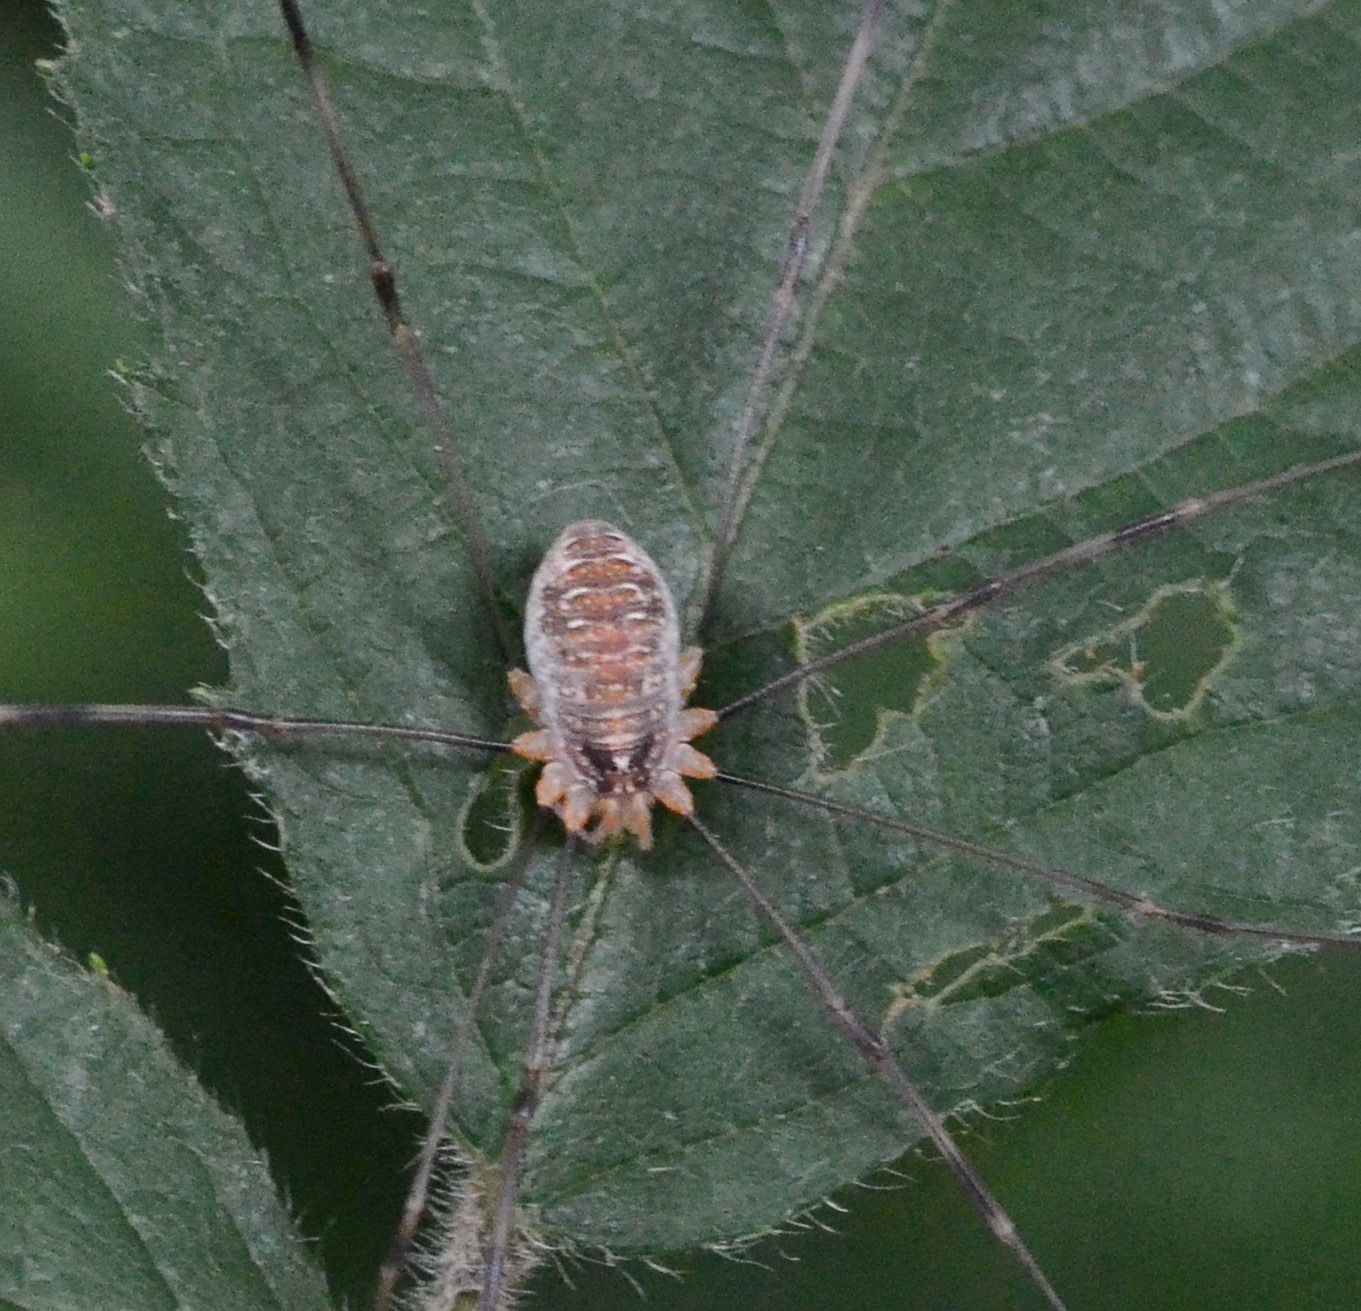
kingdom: Animalia
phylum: Arthropoda
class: Arachnida
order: Opiliones
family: Phalangiidae
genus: Opilio
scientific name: Opilio canestrinii
